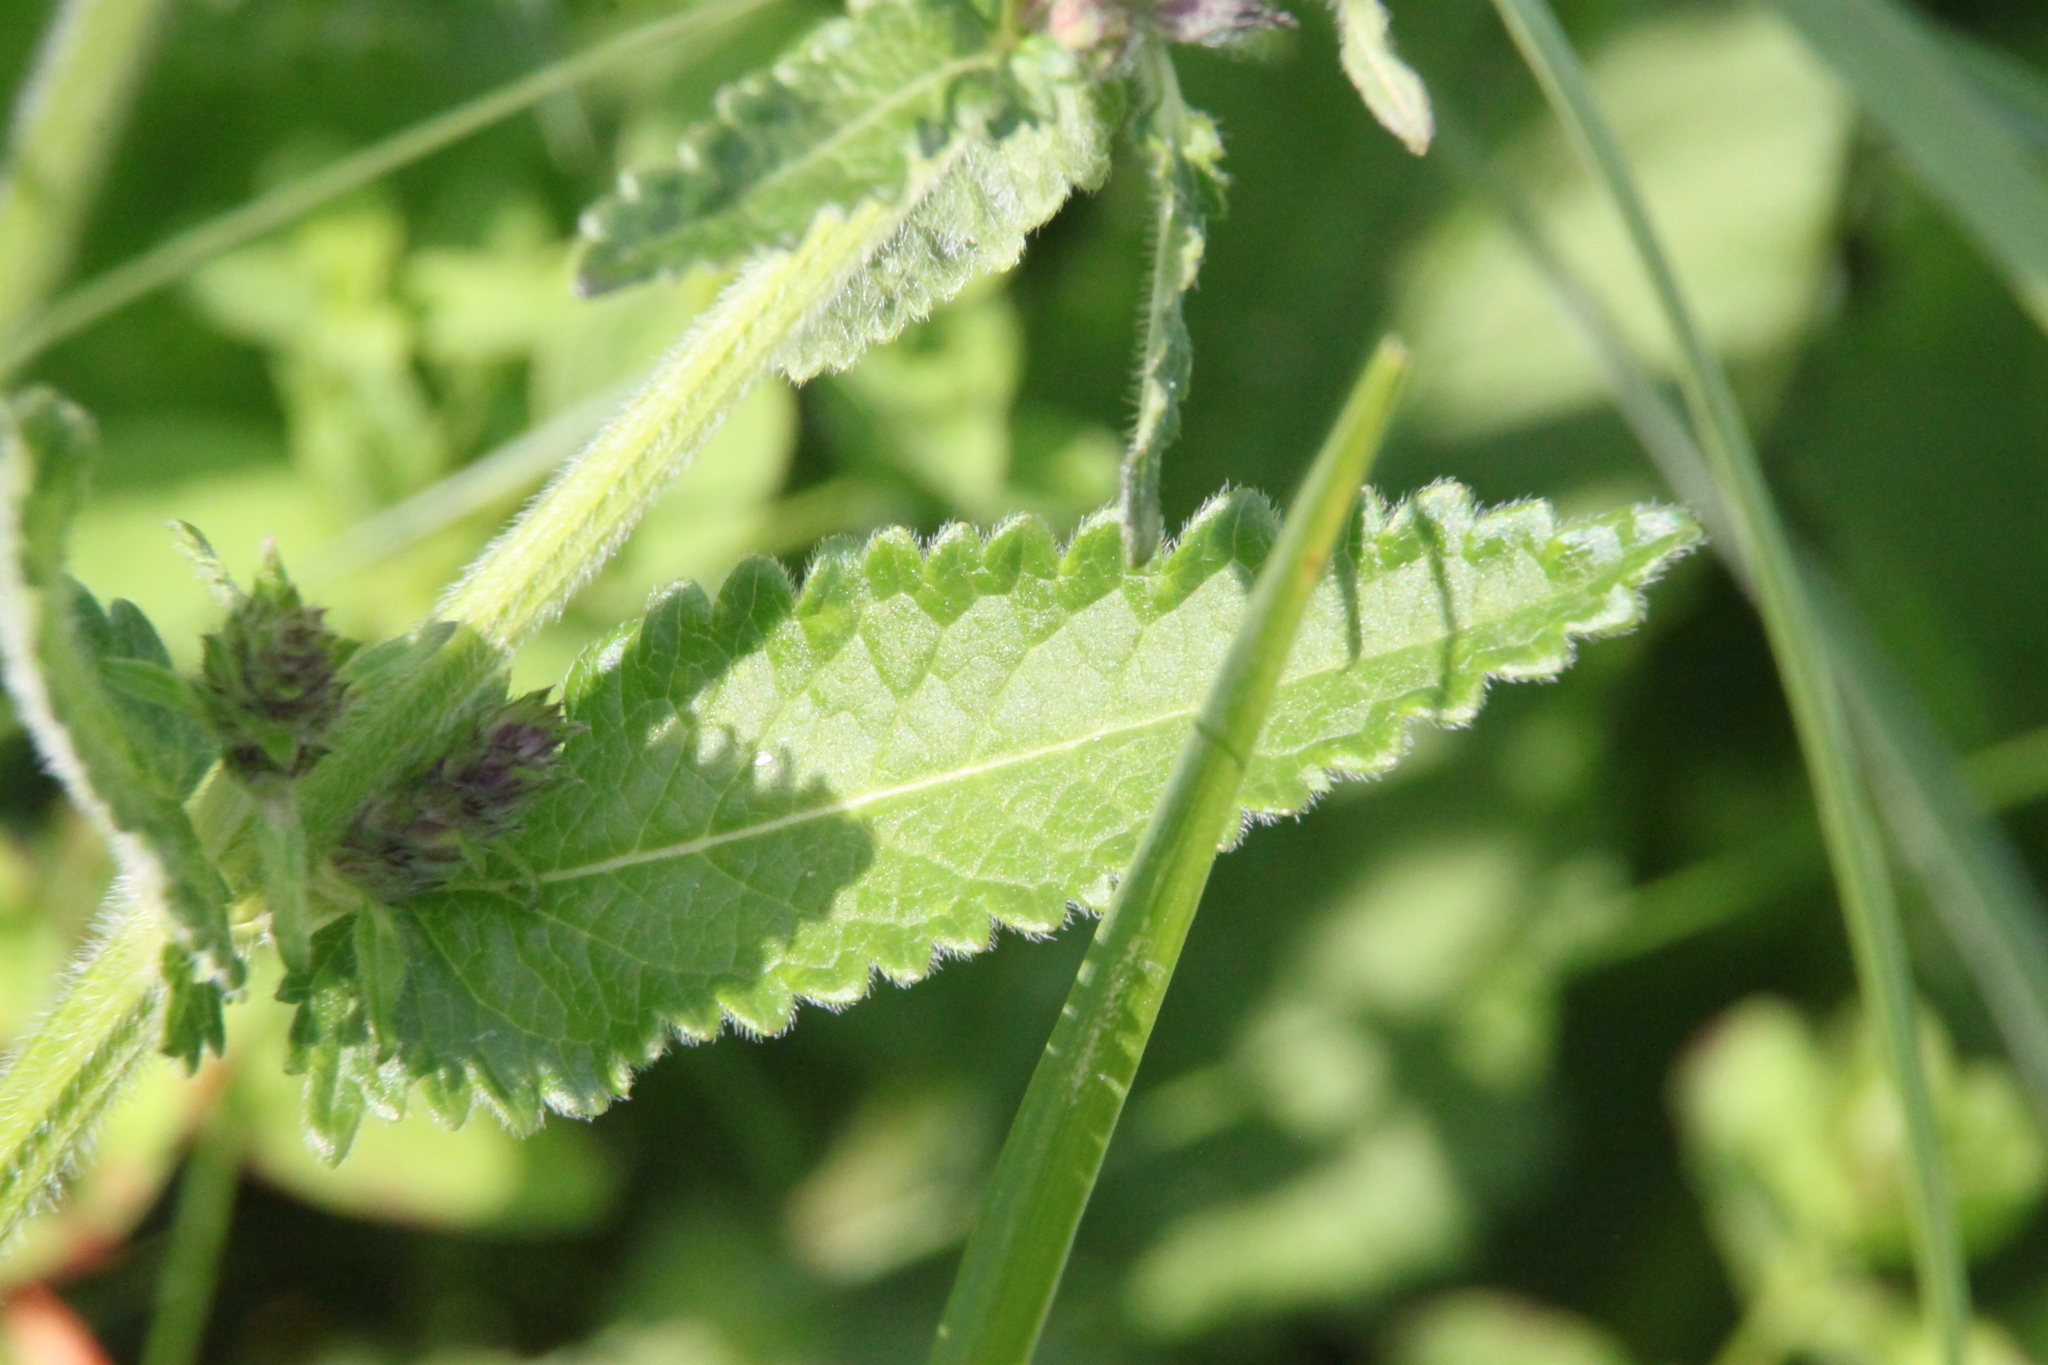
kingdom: Plantae
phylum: Tracheophyta
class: Magnoliopsida
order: Lamiales
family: Lamiaceae
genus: Betonica
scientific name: Betonica officinalis
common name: Bishop's-wort
